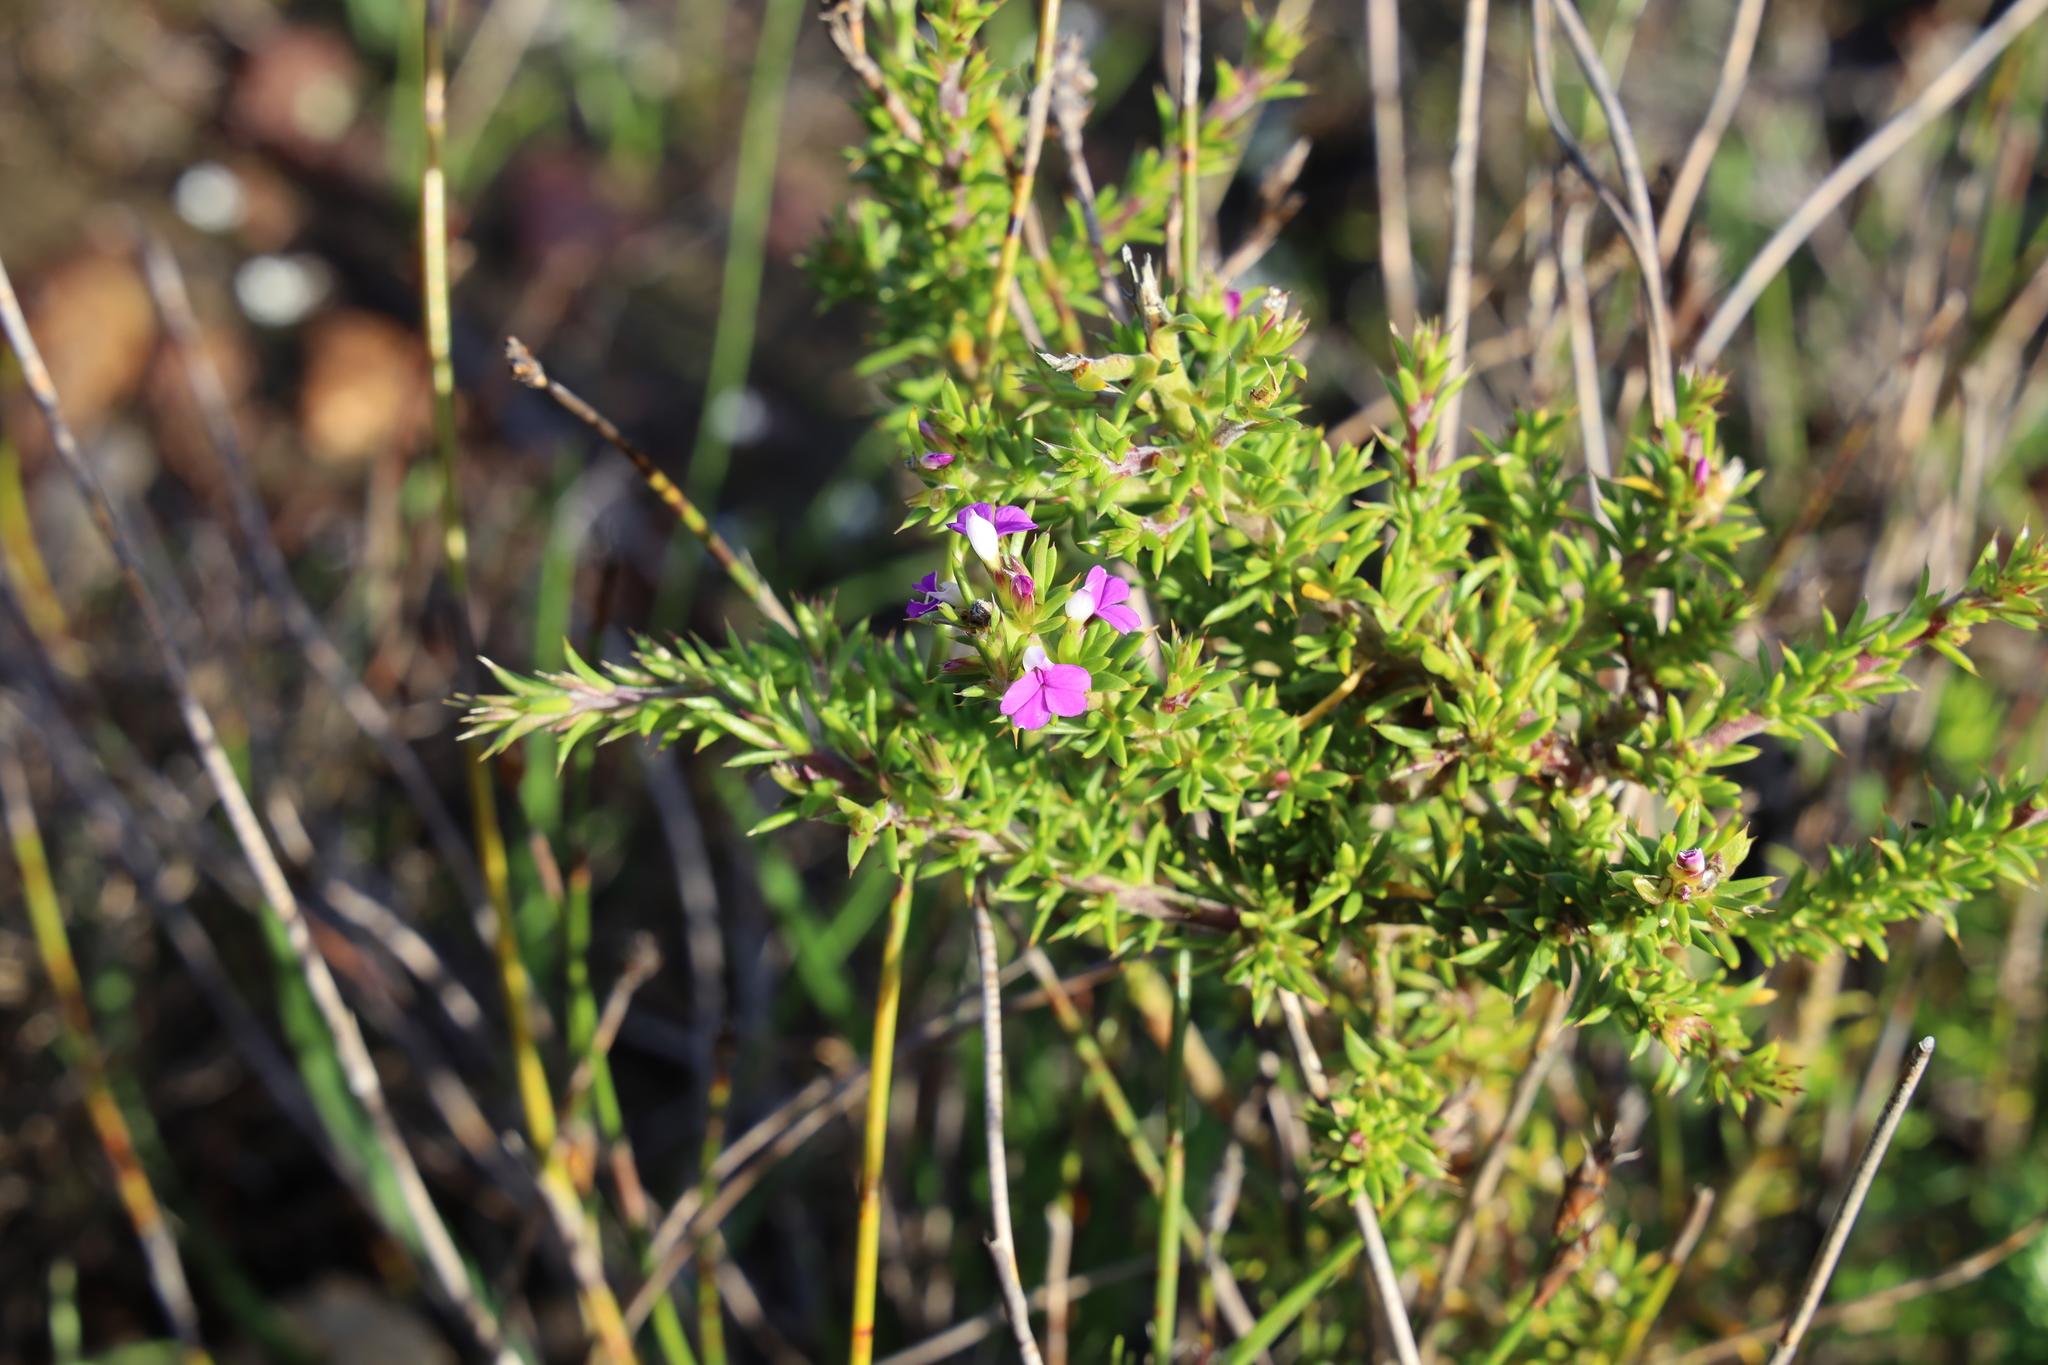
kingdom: Plantae
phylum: Tracheophyta
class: Magnoliopsida
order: Fabales
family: Polygalaceae
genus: Muraltia
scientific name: Muraltia heisteria
